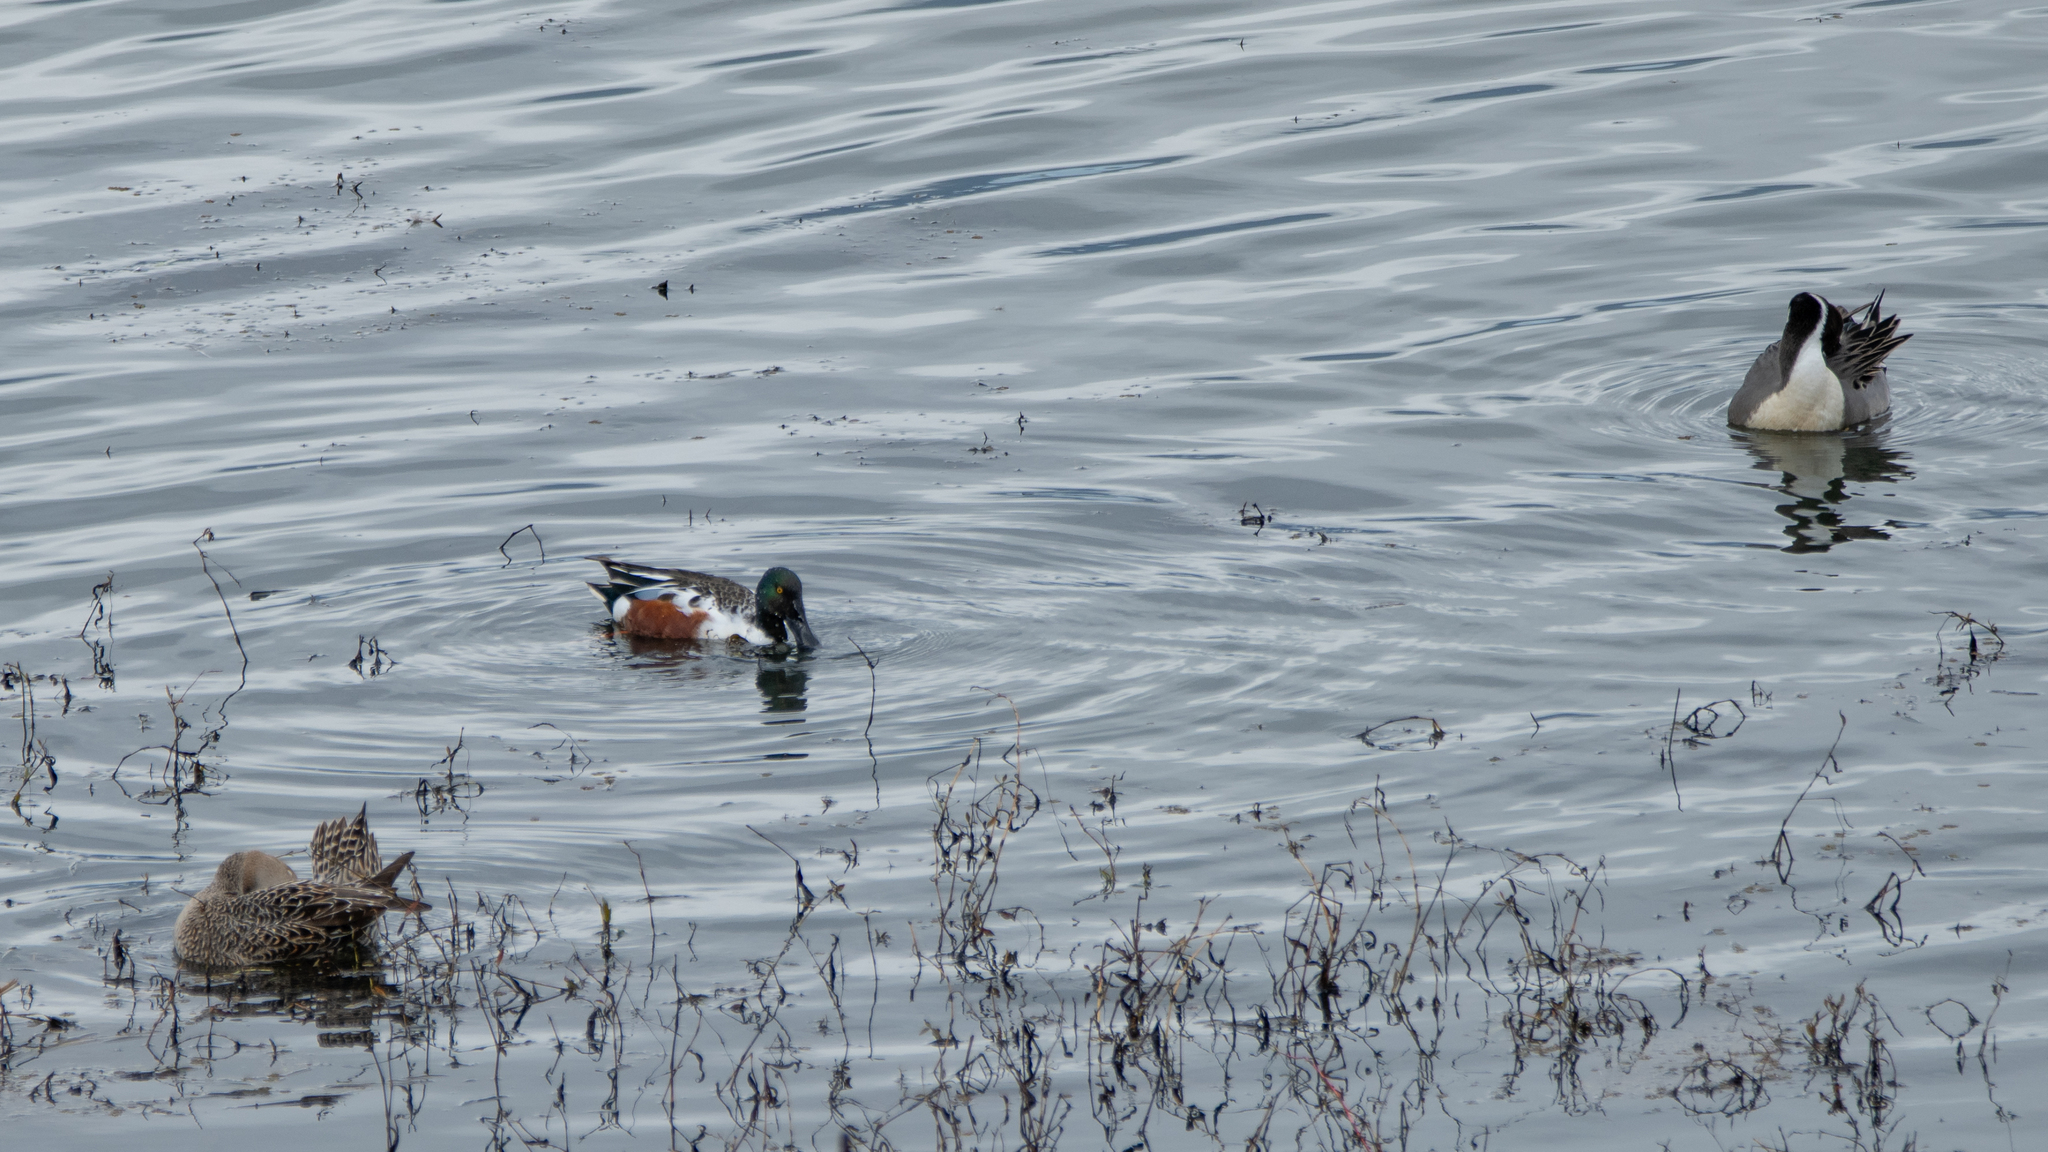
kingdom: Animalia
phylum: Chordata
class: Aves
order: Anseriformes
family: Anatidae
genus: Spatula
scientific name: Spatula clypeata
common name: Northern shoveler
